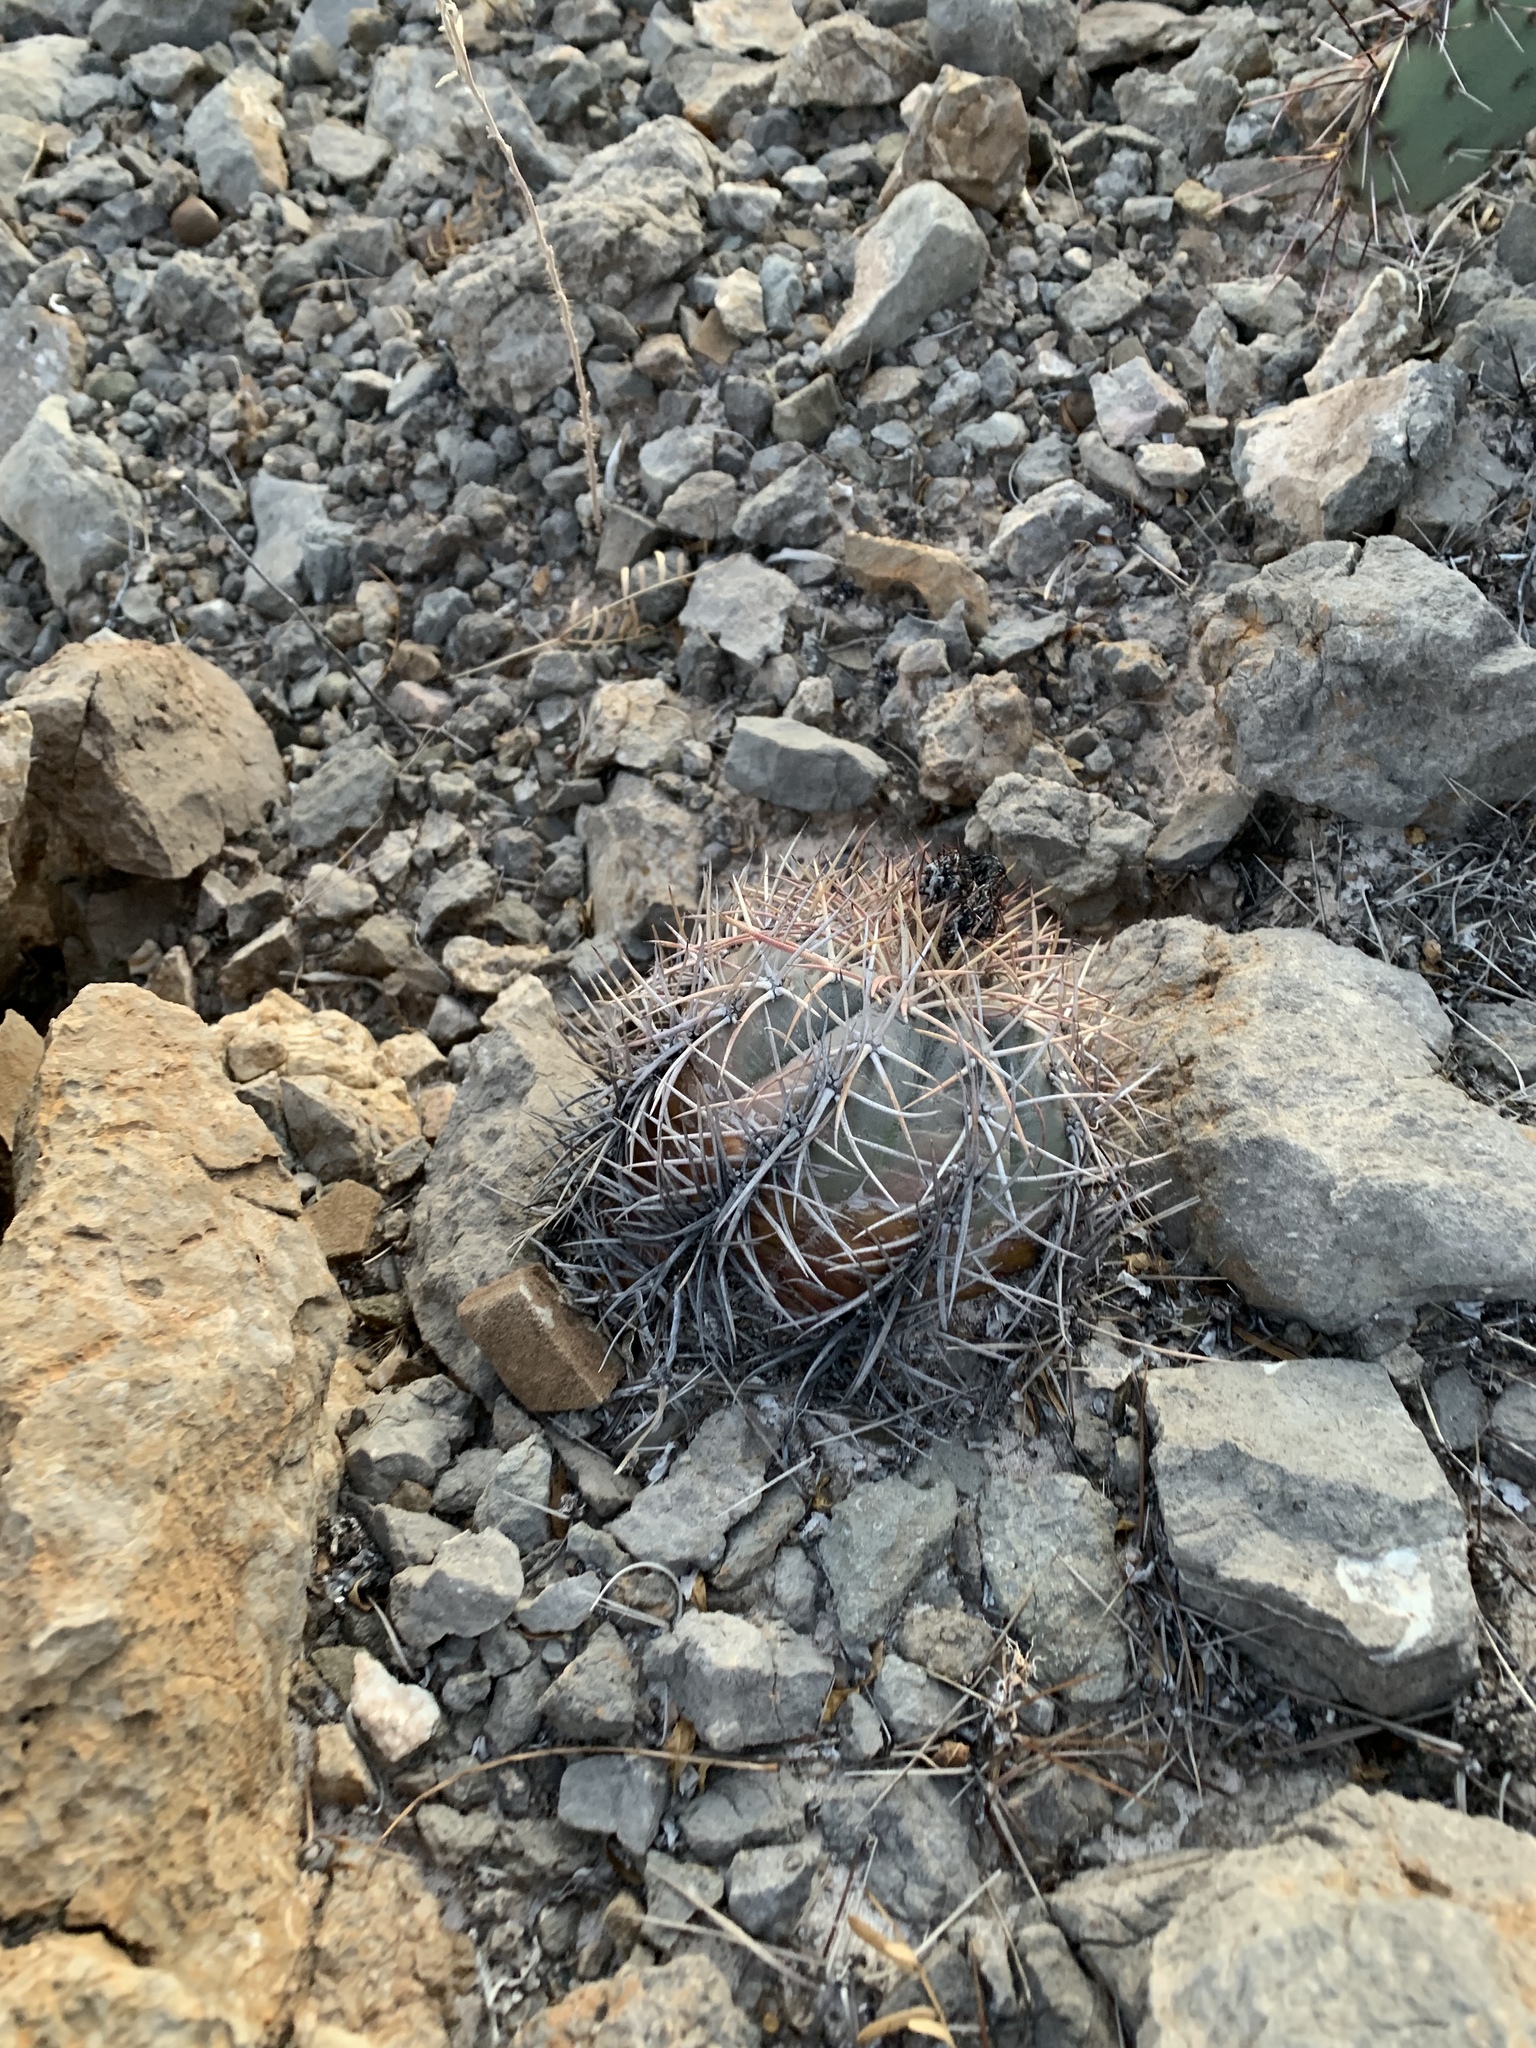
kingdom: Plantae
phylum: Tracheophyta
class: Magnoliopsida
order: Caryophyllales
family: Cactaceae
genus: Echinocactus
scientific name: Echinocactus horizonthalonius
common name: Devilshead
